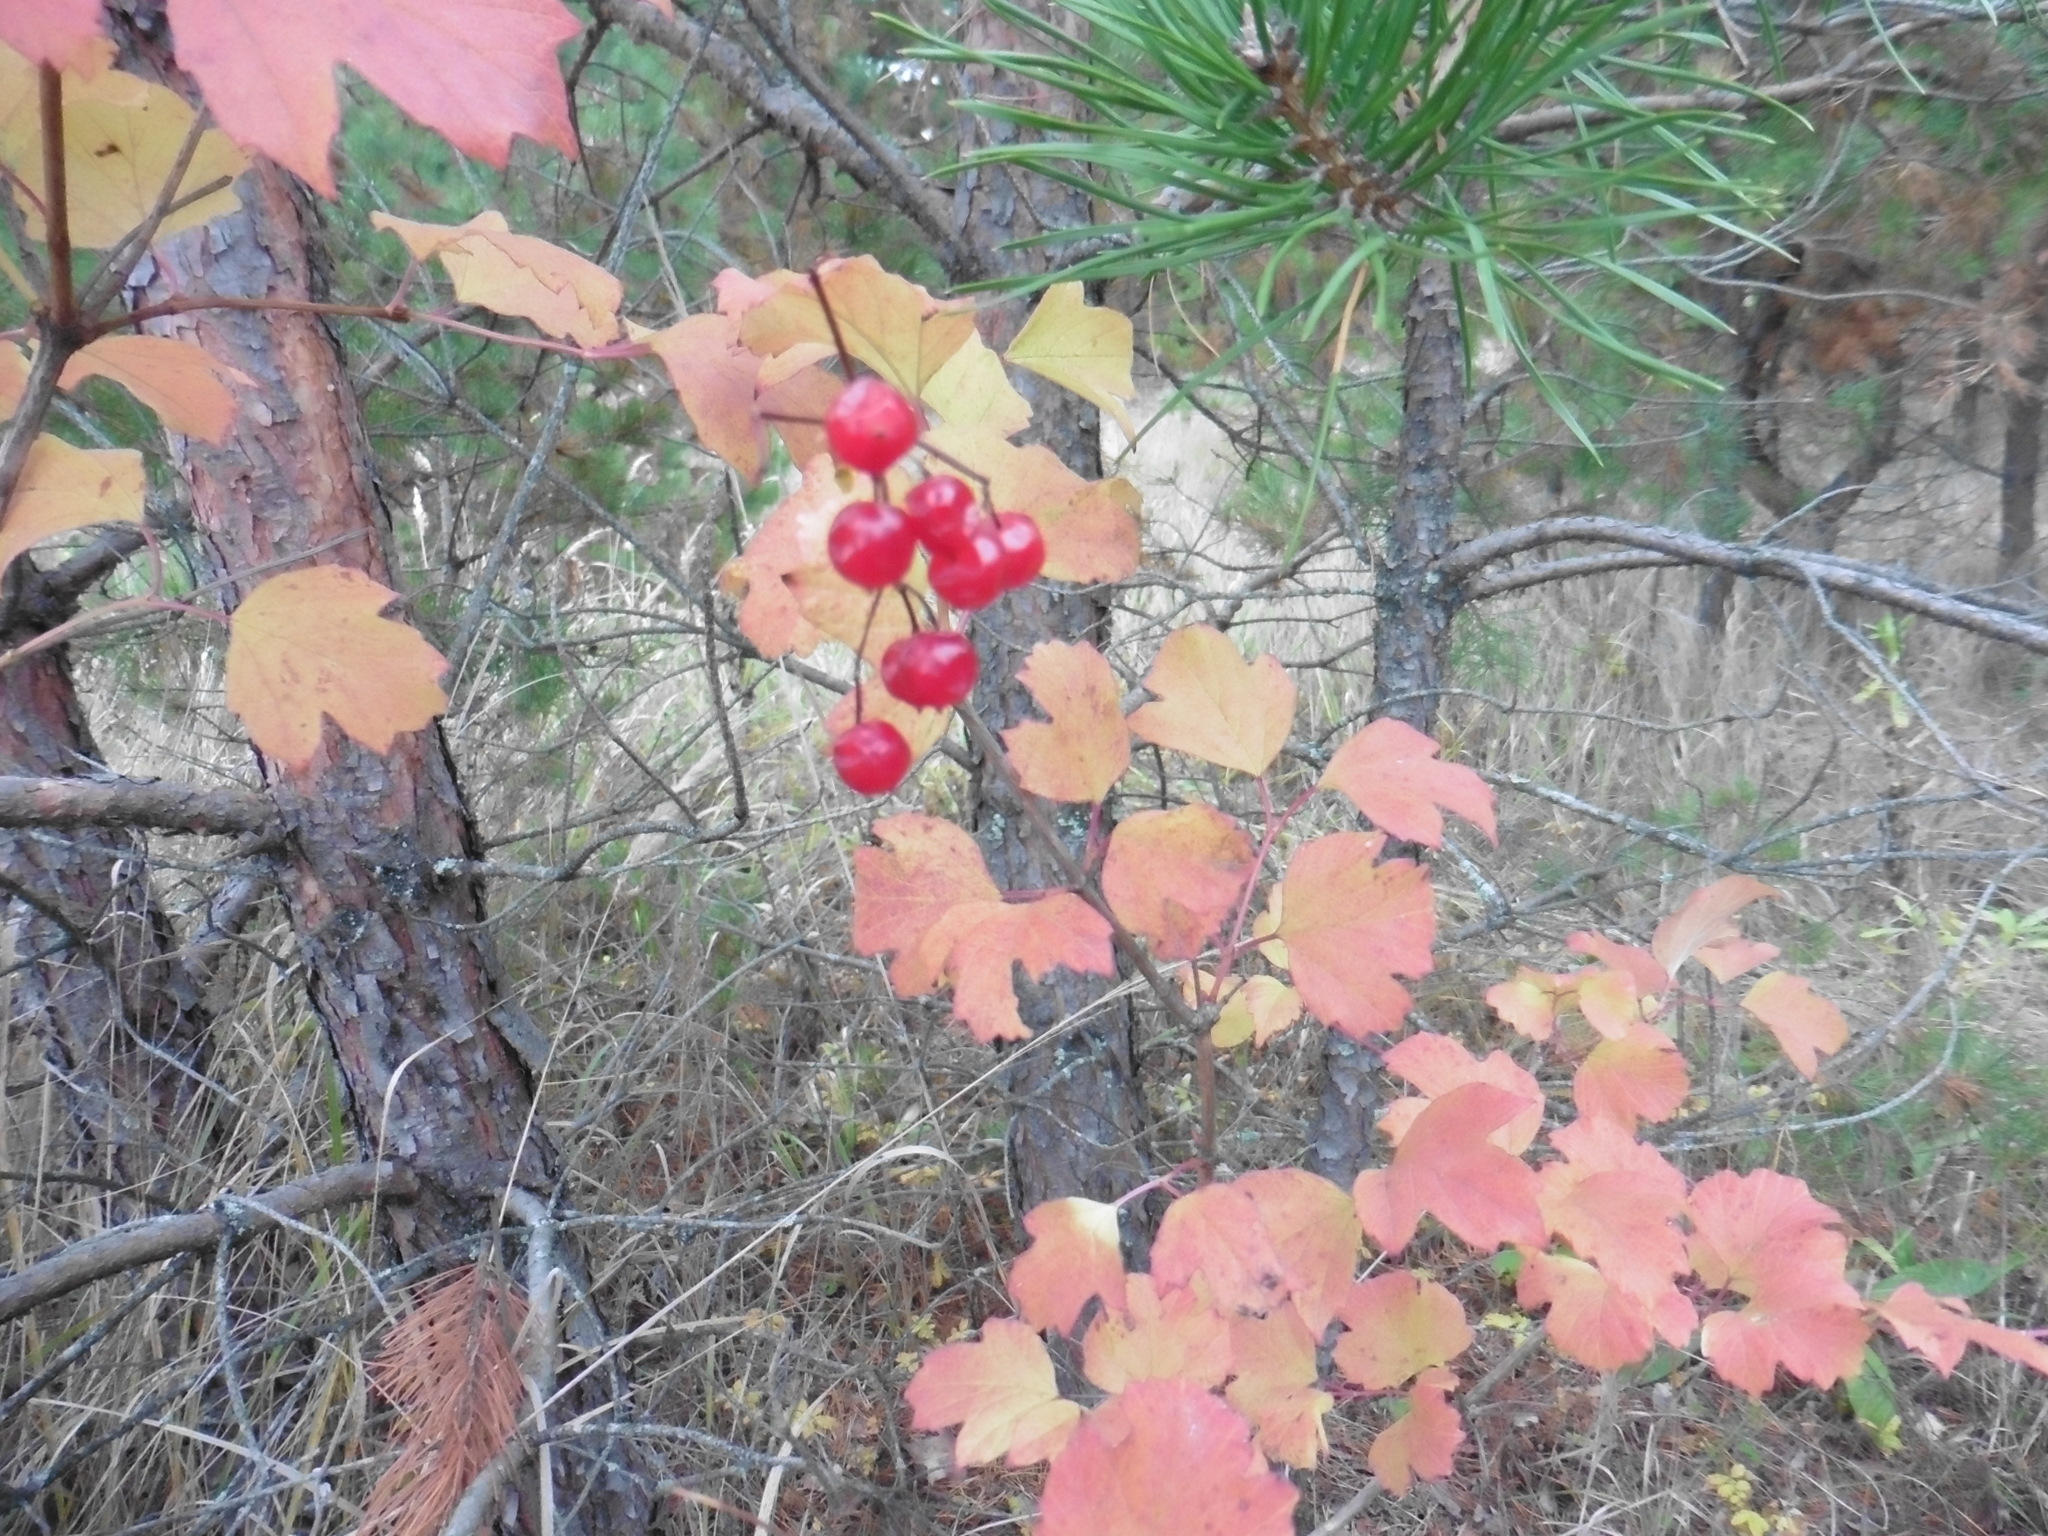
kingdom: Plantae
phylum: Tracheophyta
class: Magnoliopsida
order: Dipsacales
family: Viburnaceae
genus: Viburnum
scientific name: Viburnum opulus
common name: Guelder-rose
